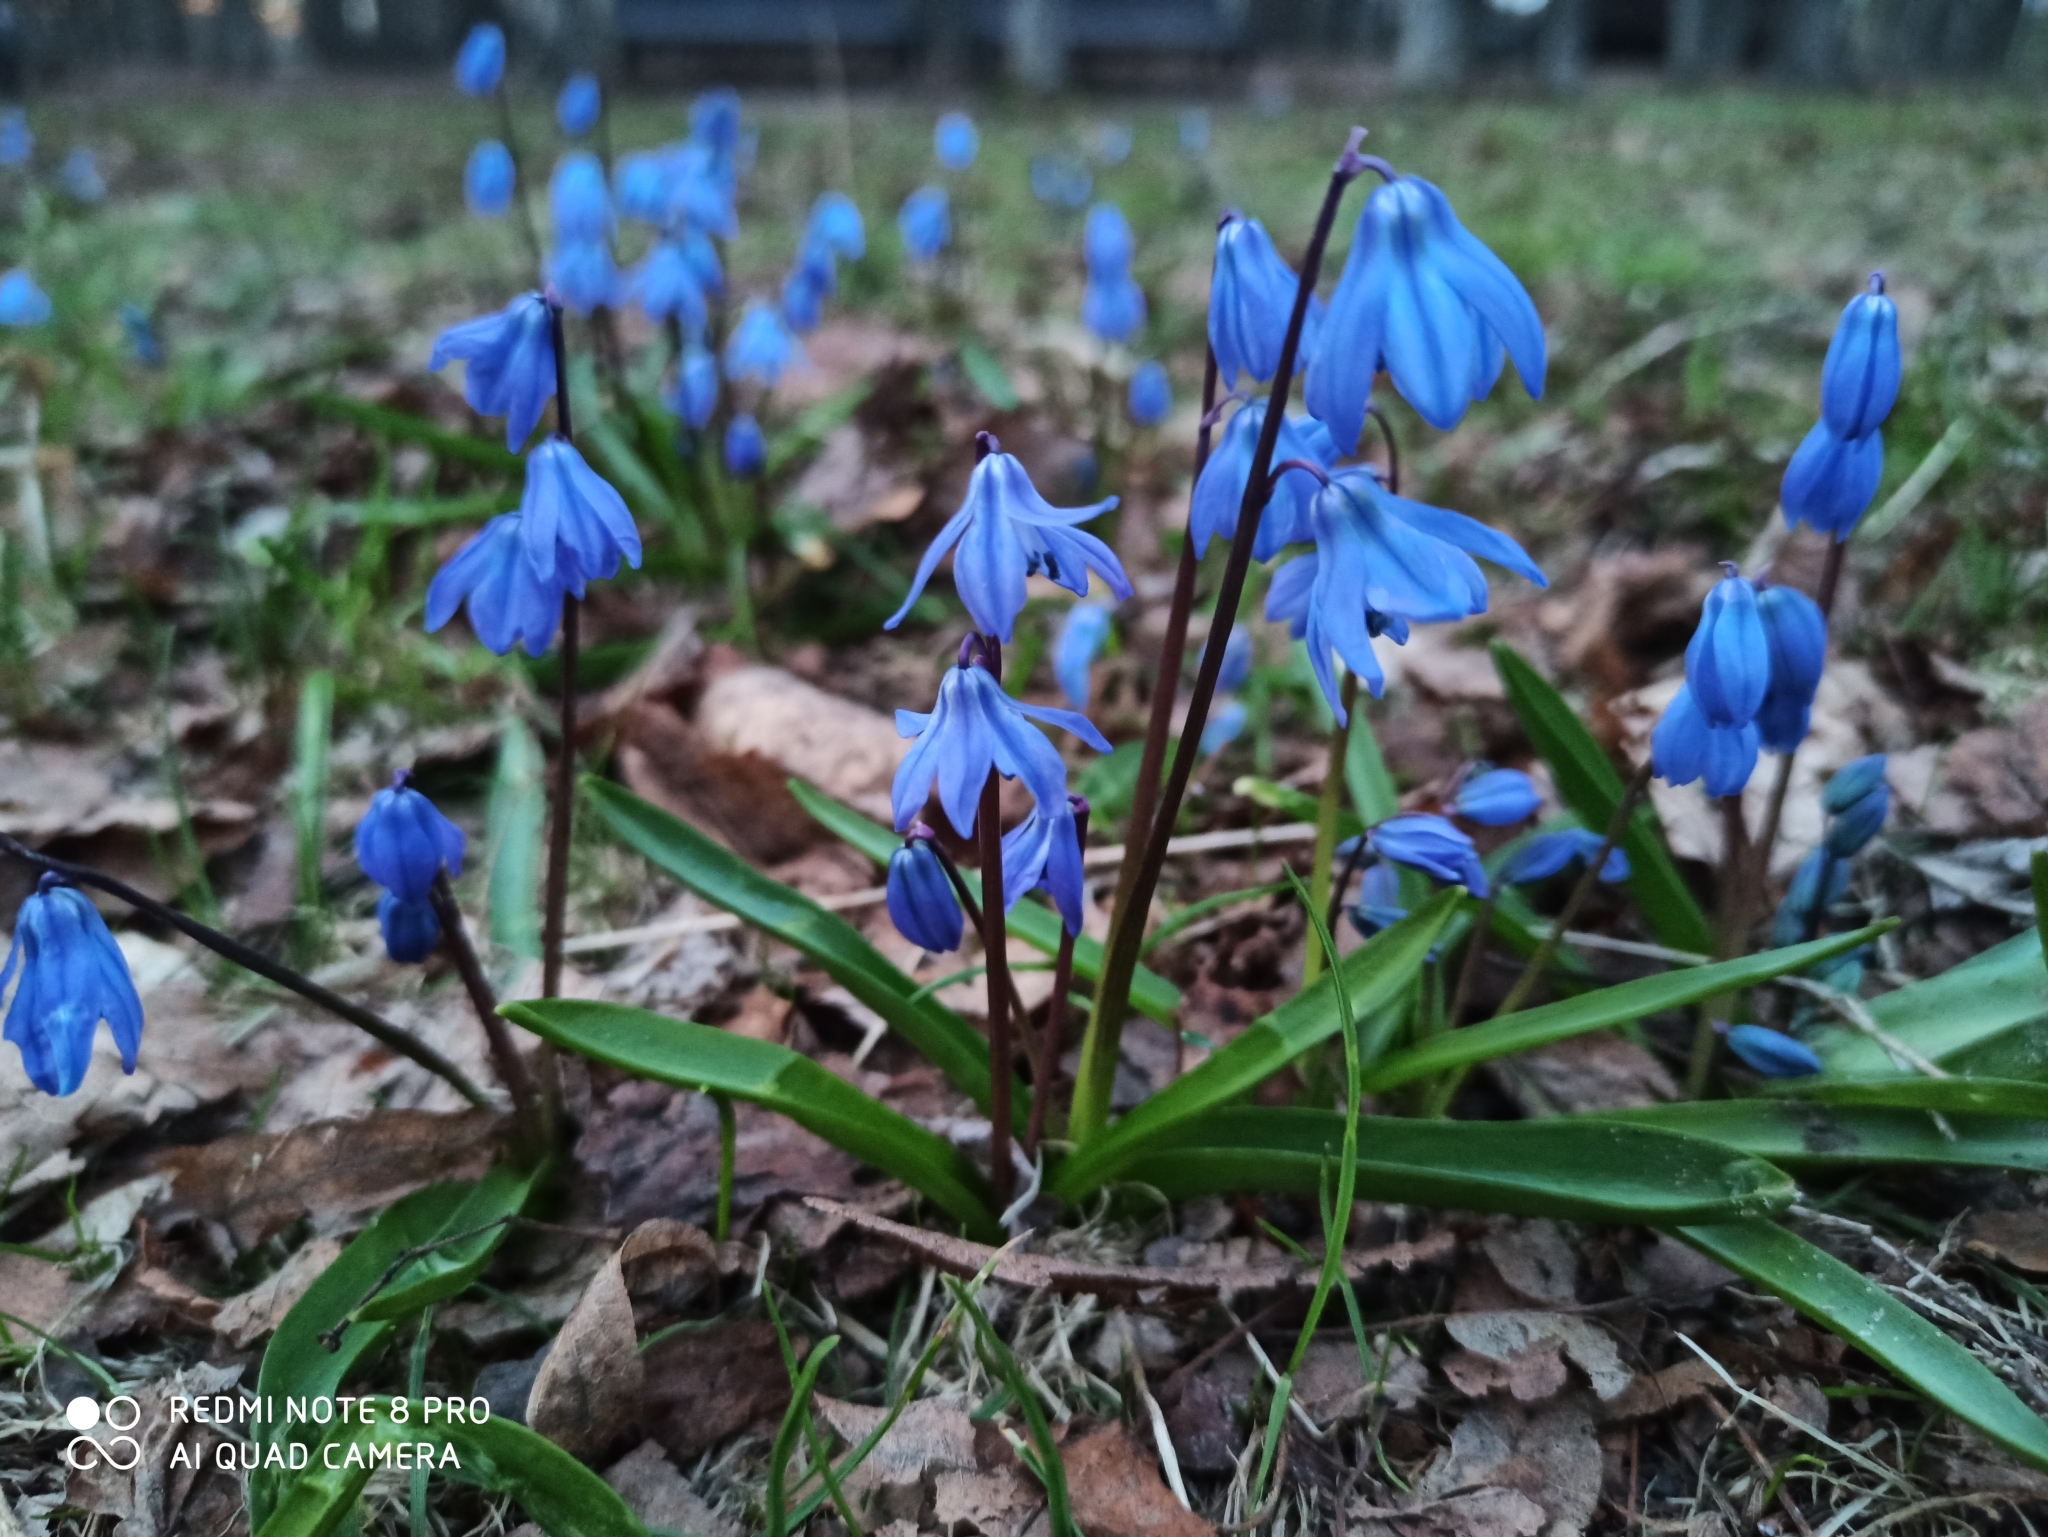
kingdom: Plantae
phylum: Tracheophyta
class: Liliopsida
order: Asparagales
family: Asparagaceae
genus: Scilla
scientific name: Scilla siberica
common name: Siberian squill
